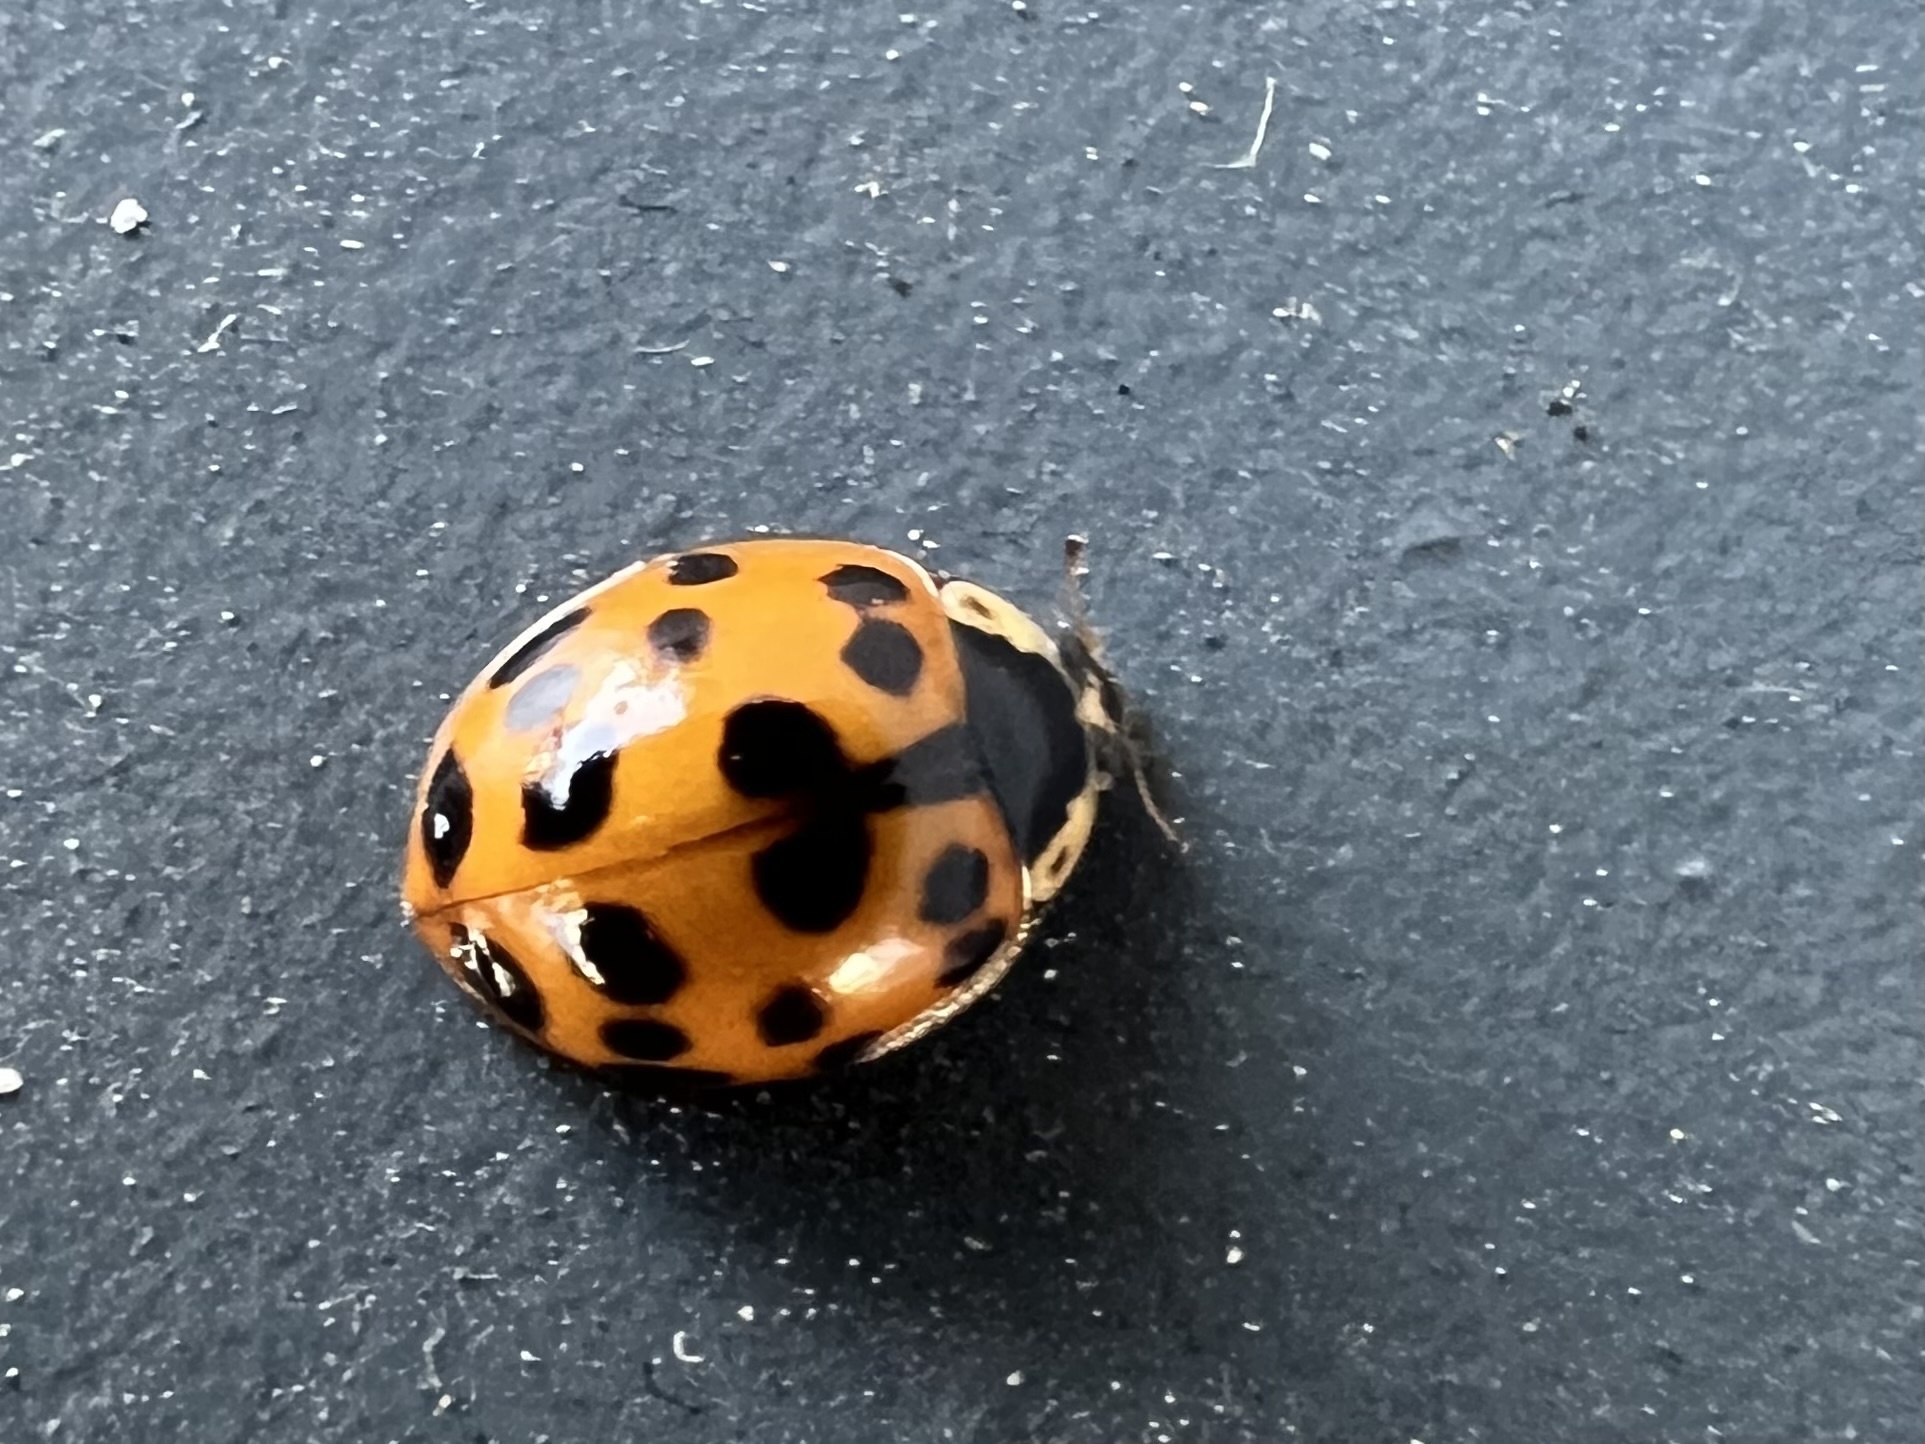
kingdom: Animalia
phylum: Arthropoda
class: Insecta
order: Coleoptera
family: Coccinellidae
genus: Harmonia
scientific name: Harmonia axyridis
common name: Harlequin ladybird
